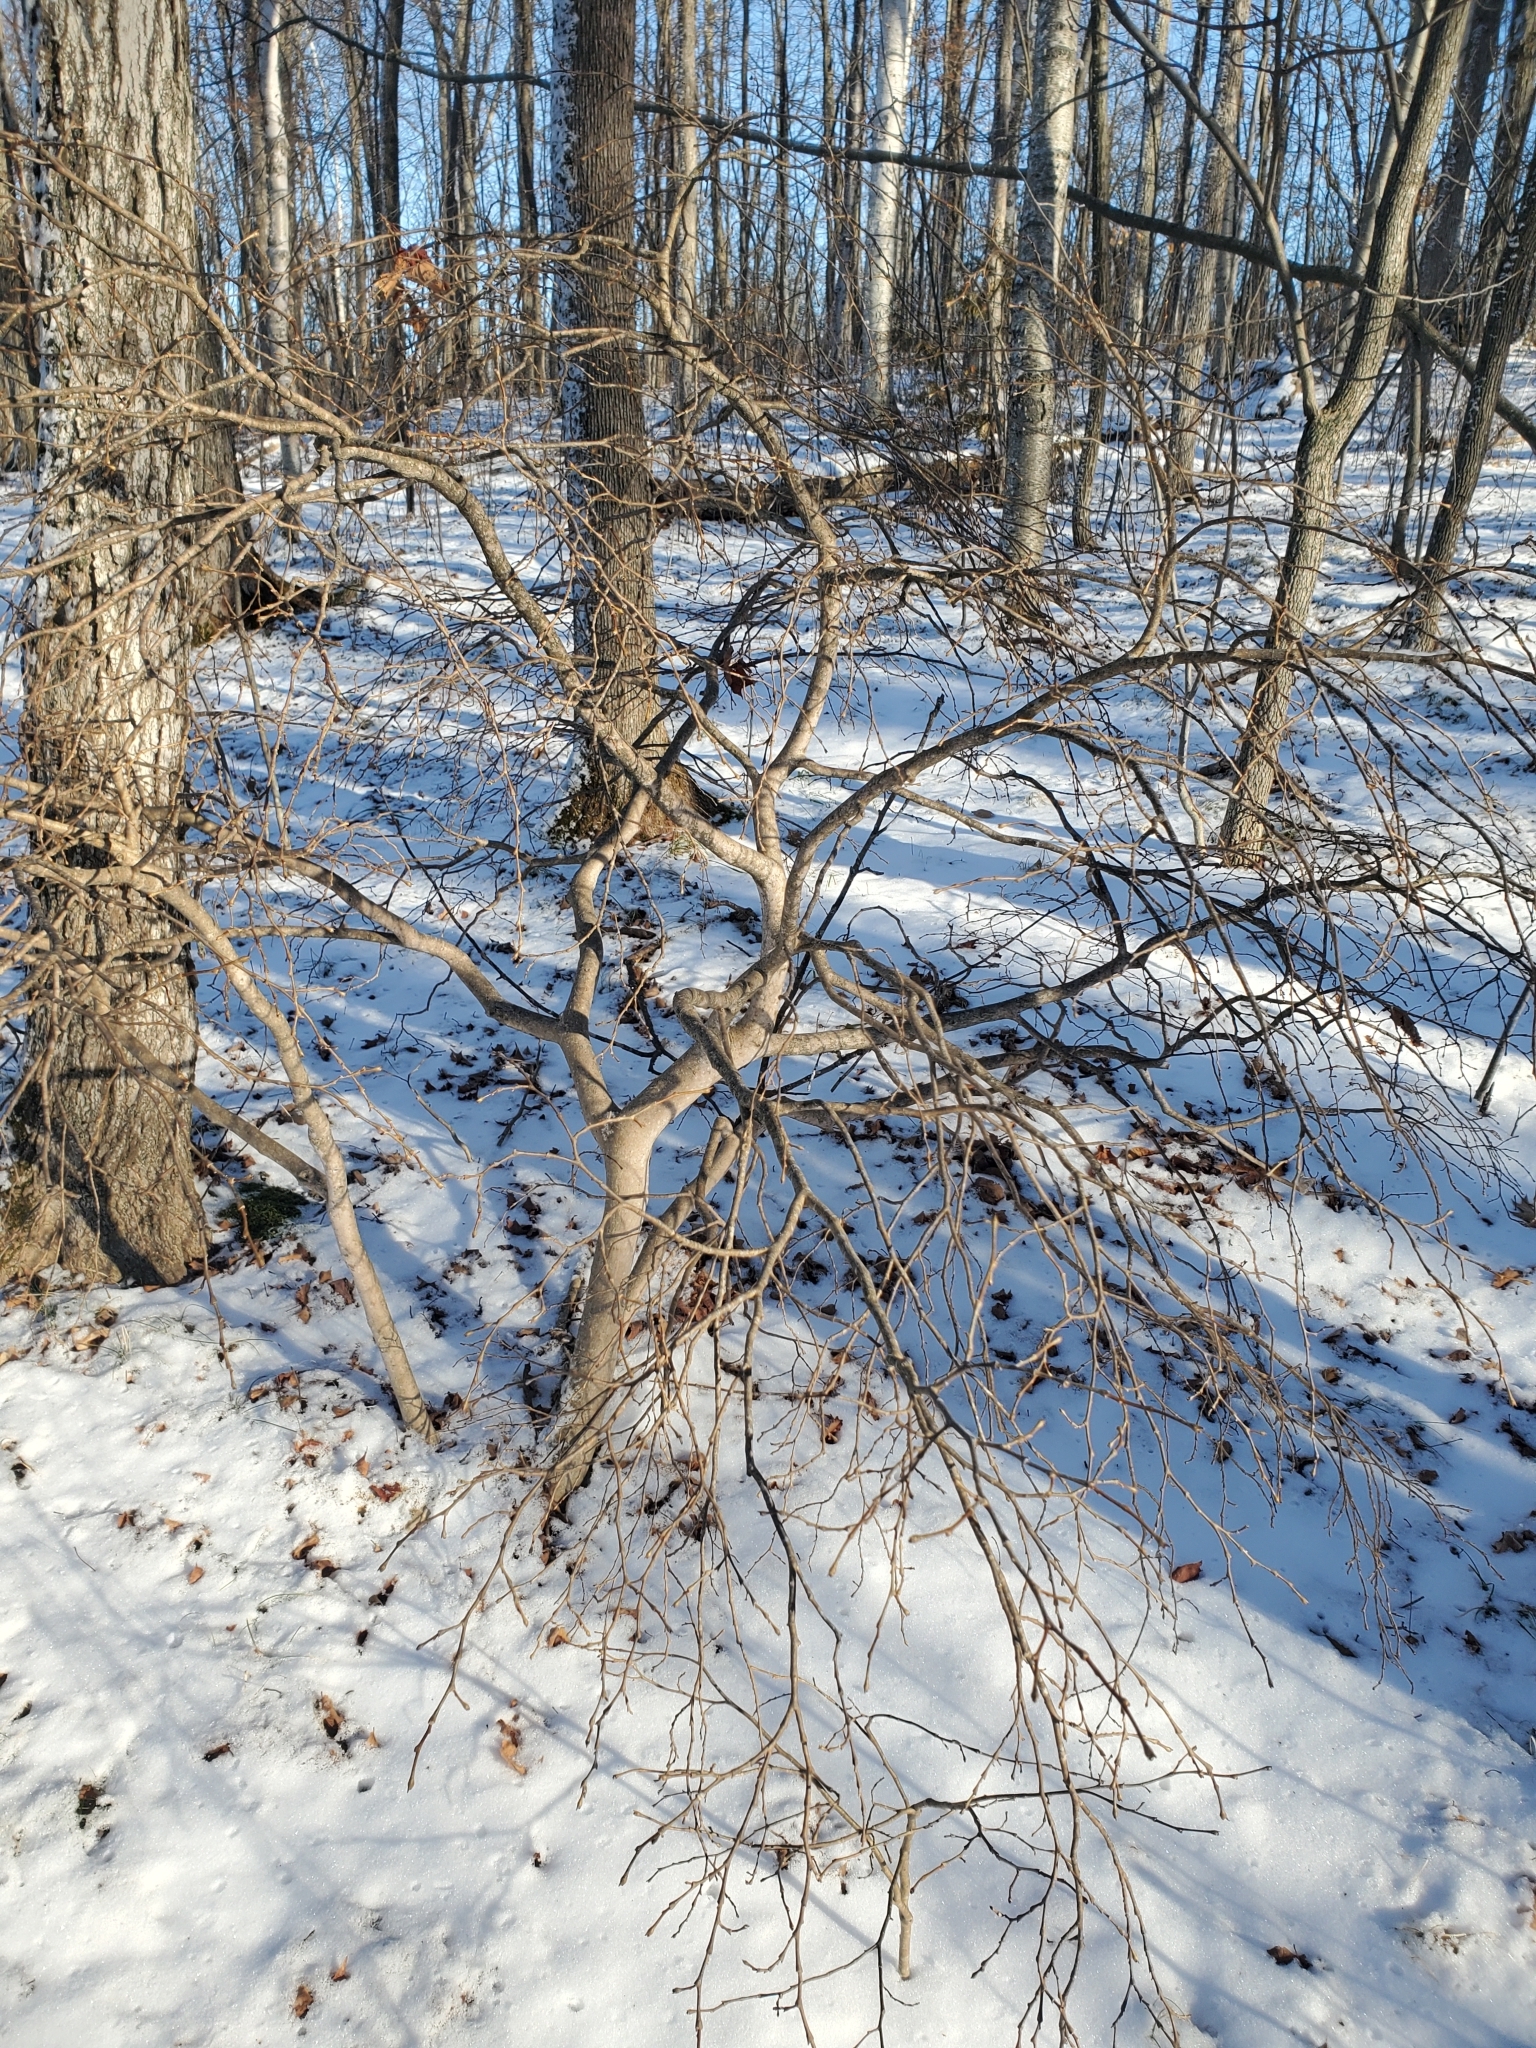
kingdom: Plantae
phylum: Tracheophyta
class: Magnoliopsida
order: Malvales
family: Thymelaeaceae
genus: Dirca
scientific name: Dirca palustris
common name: Leatherwood
